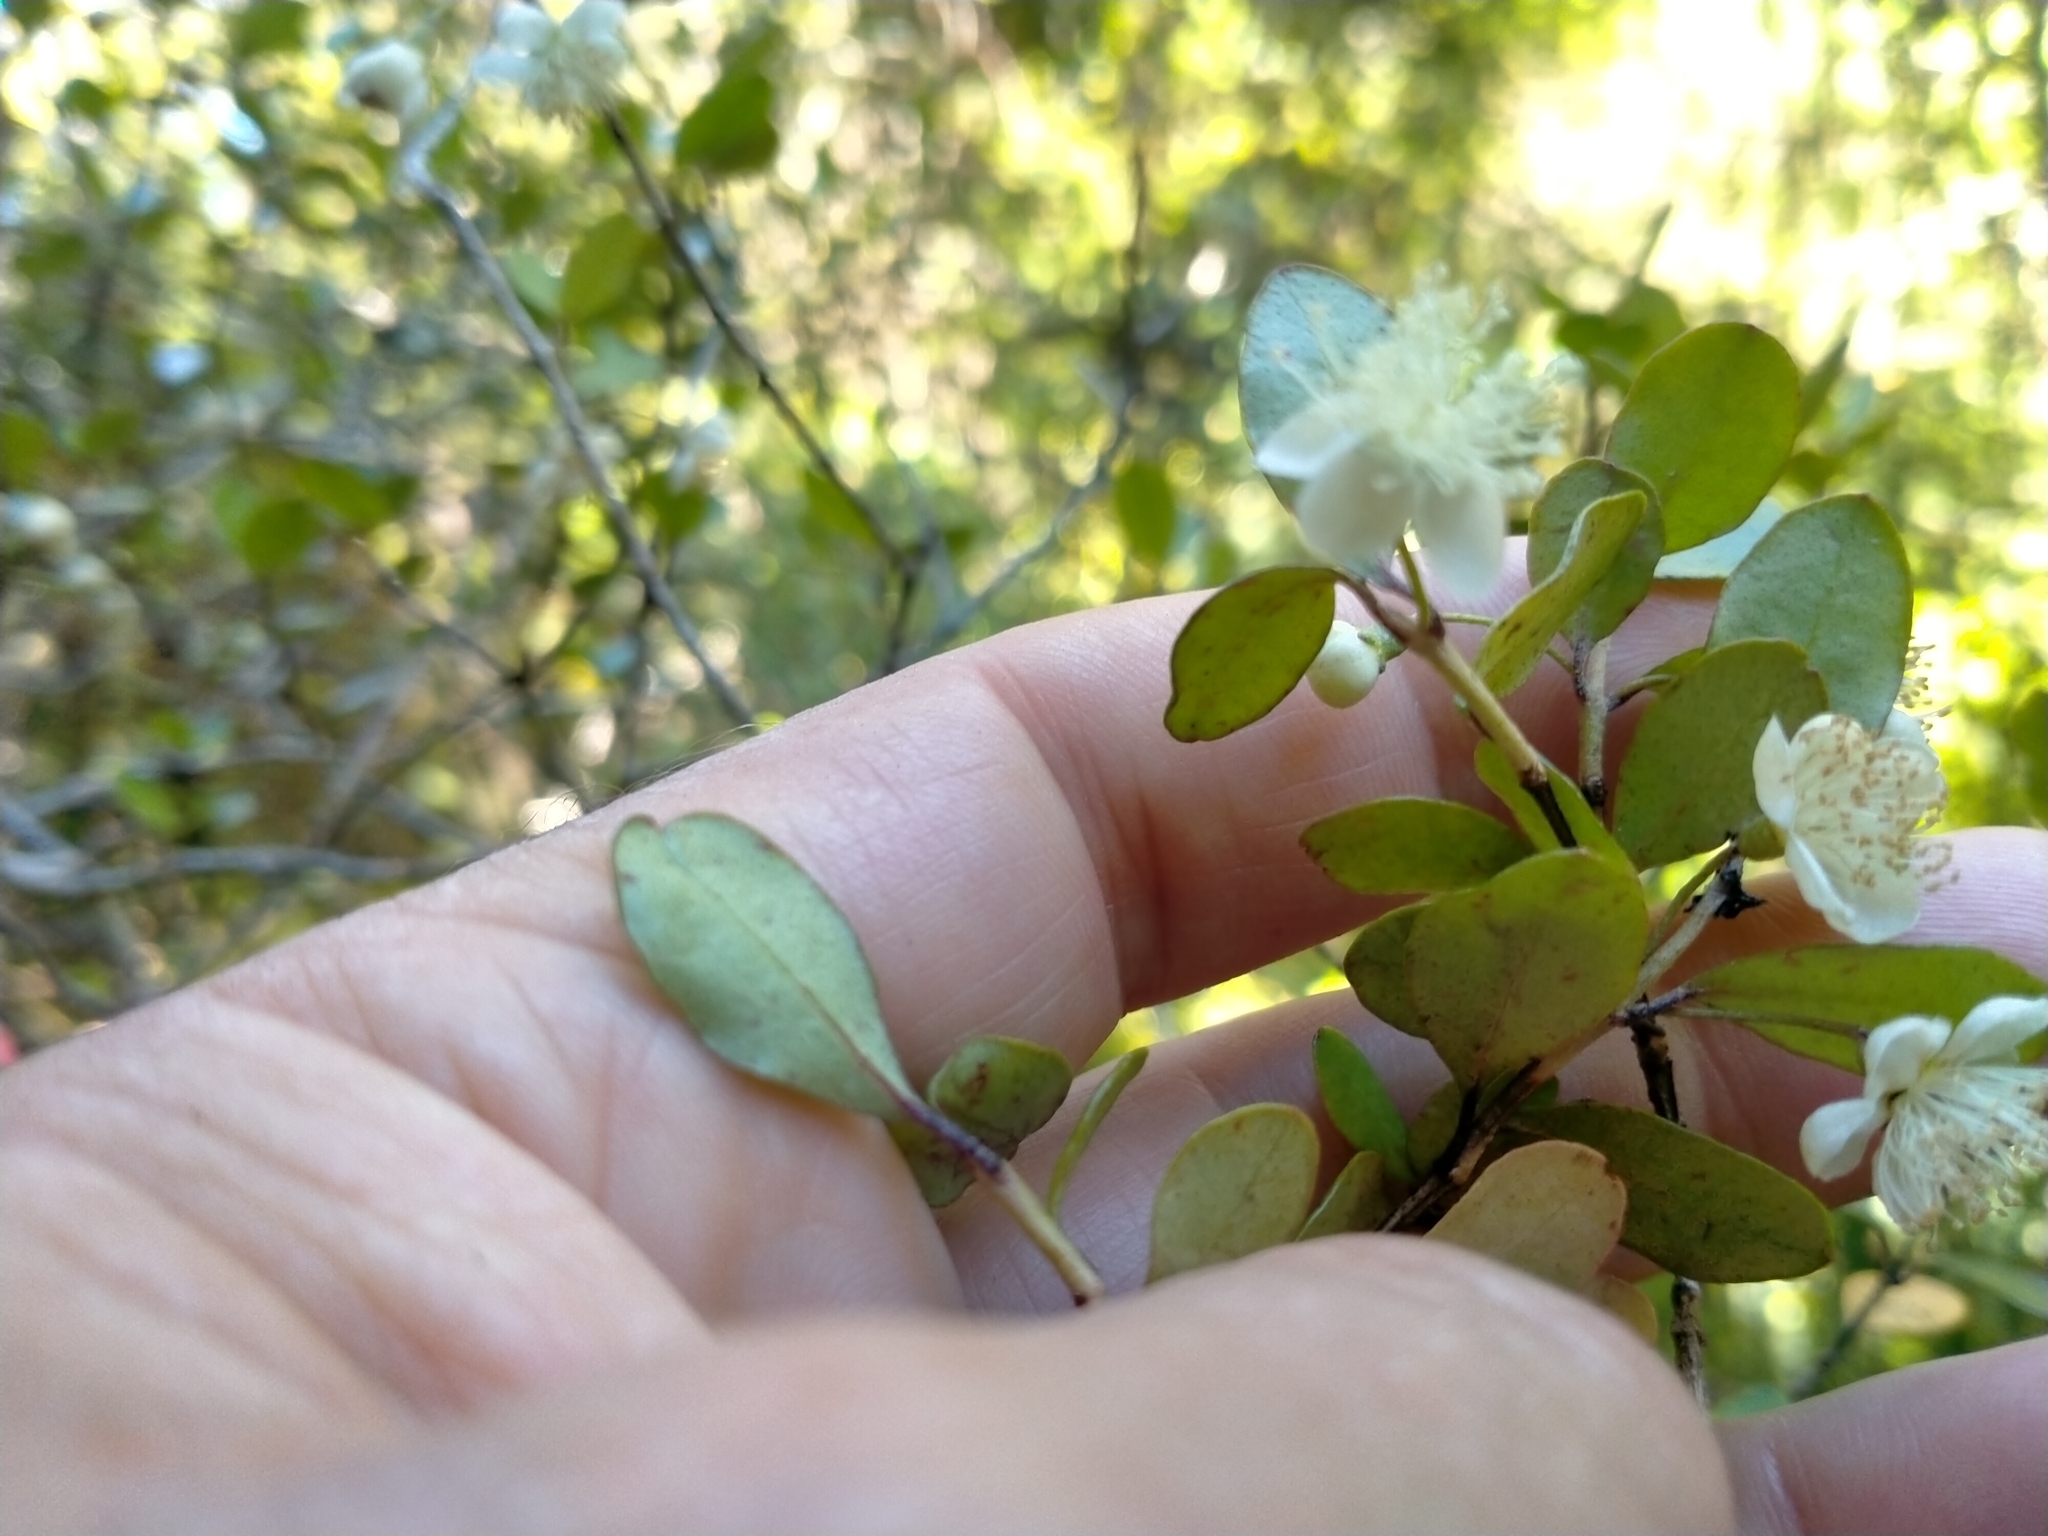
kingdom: Plantae
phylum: Tracheophyta
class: Magnoliopsida
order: Myrtales
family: Myrtaceae
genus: Neomyrtus
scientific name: Neomyrtus pedunculata
